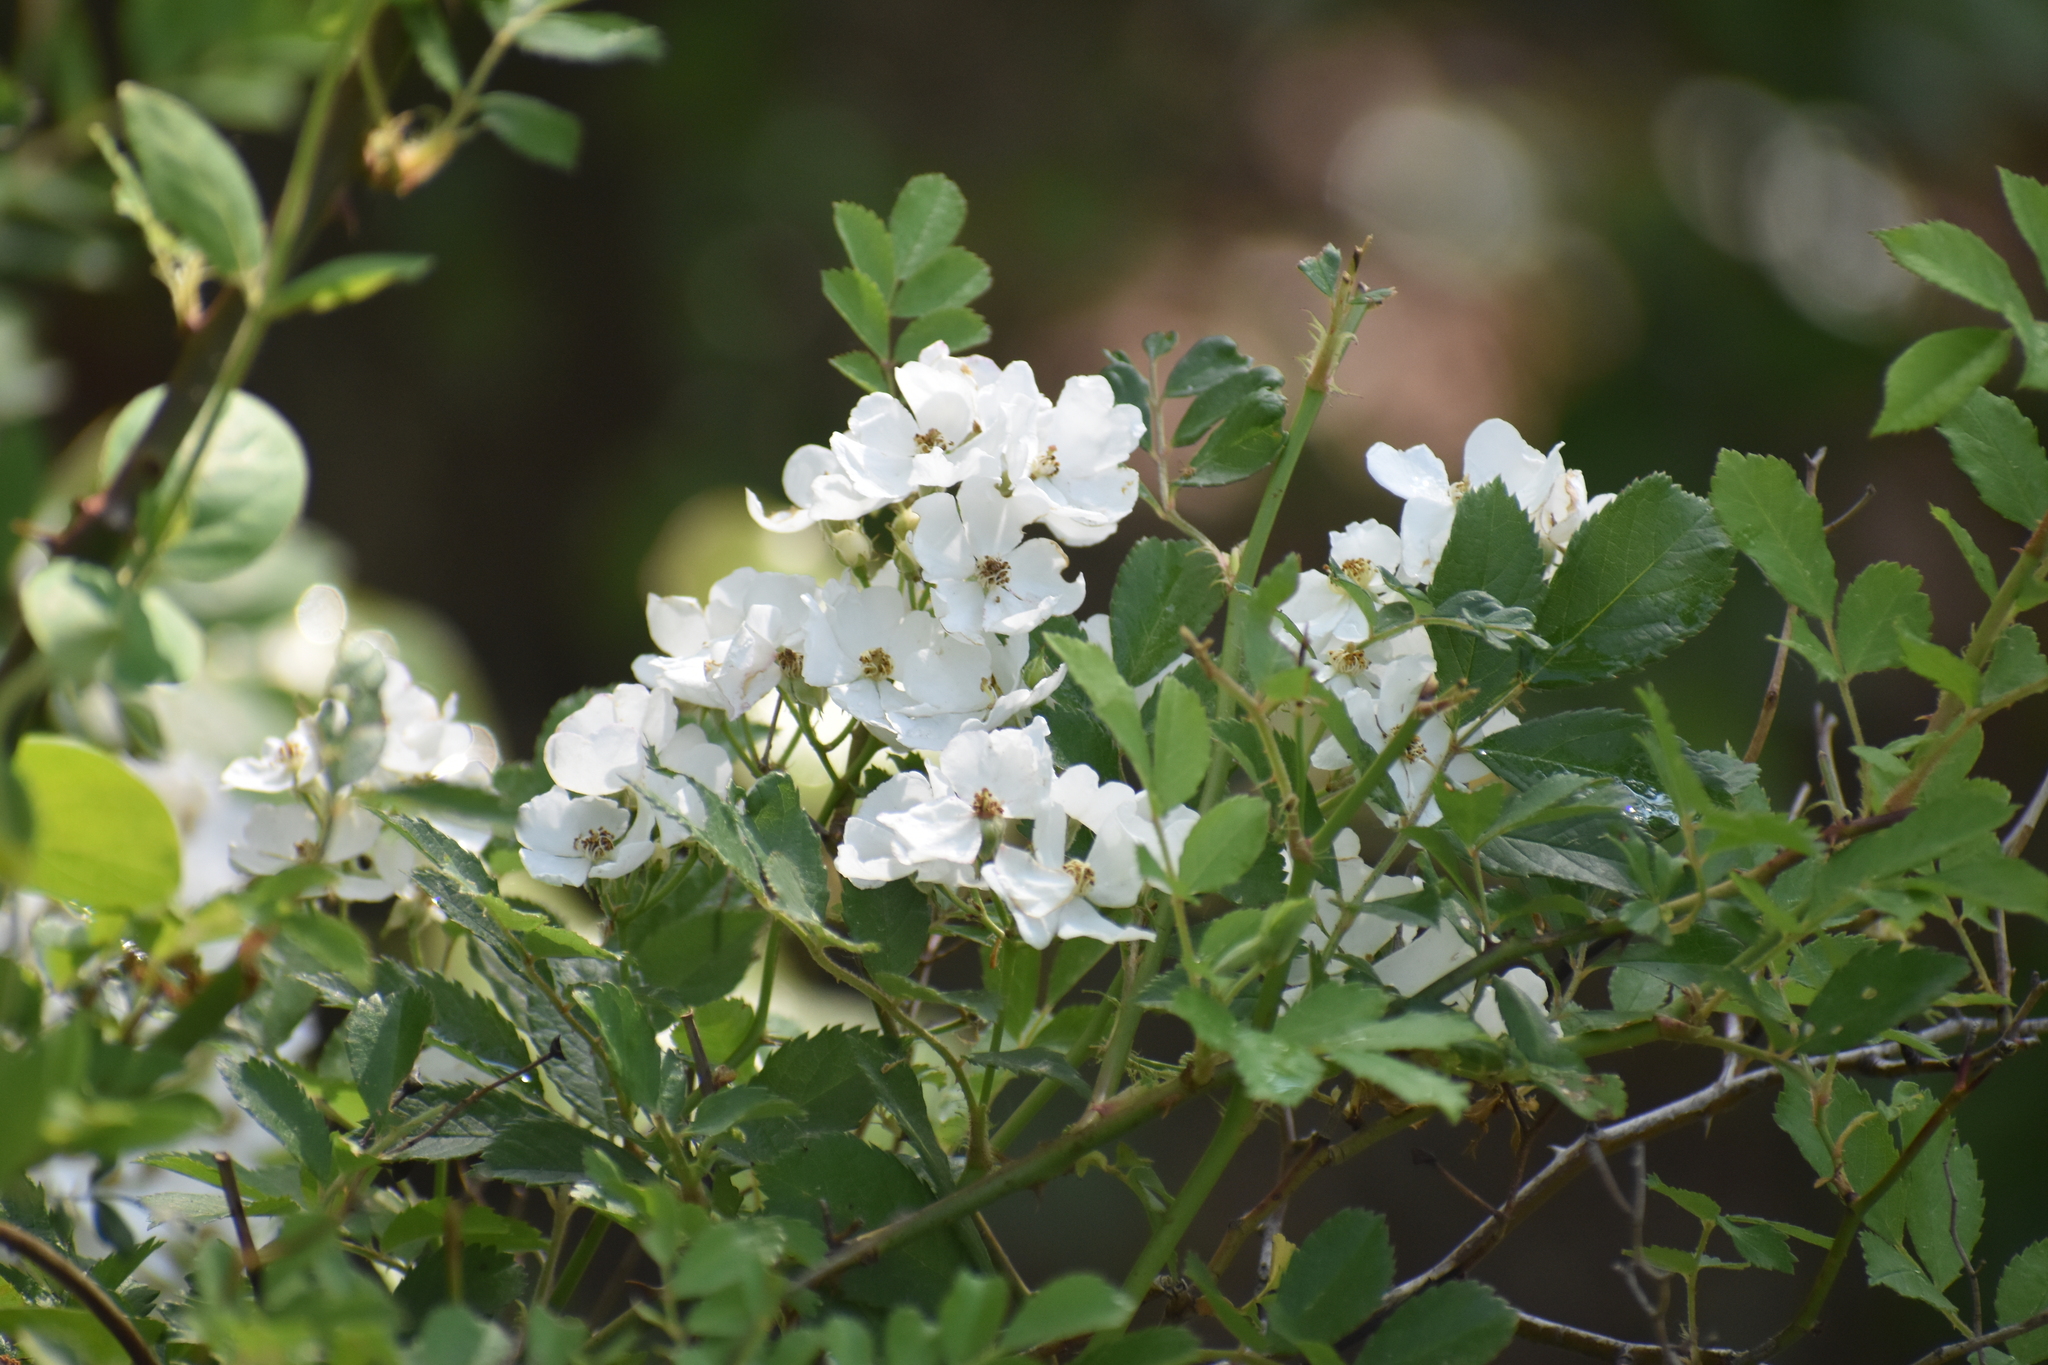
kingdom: Plantae
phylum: Tracheophyta
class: Magnoliopsida
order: Rosales
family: Rosaceae
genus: Rosa
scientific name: Rosa multiflora
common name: Multiflora rose
